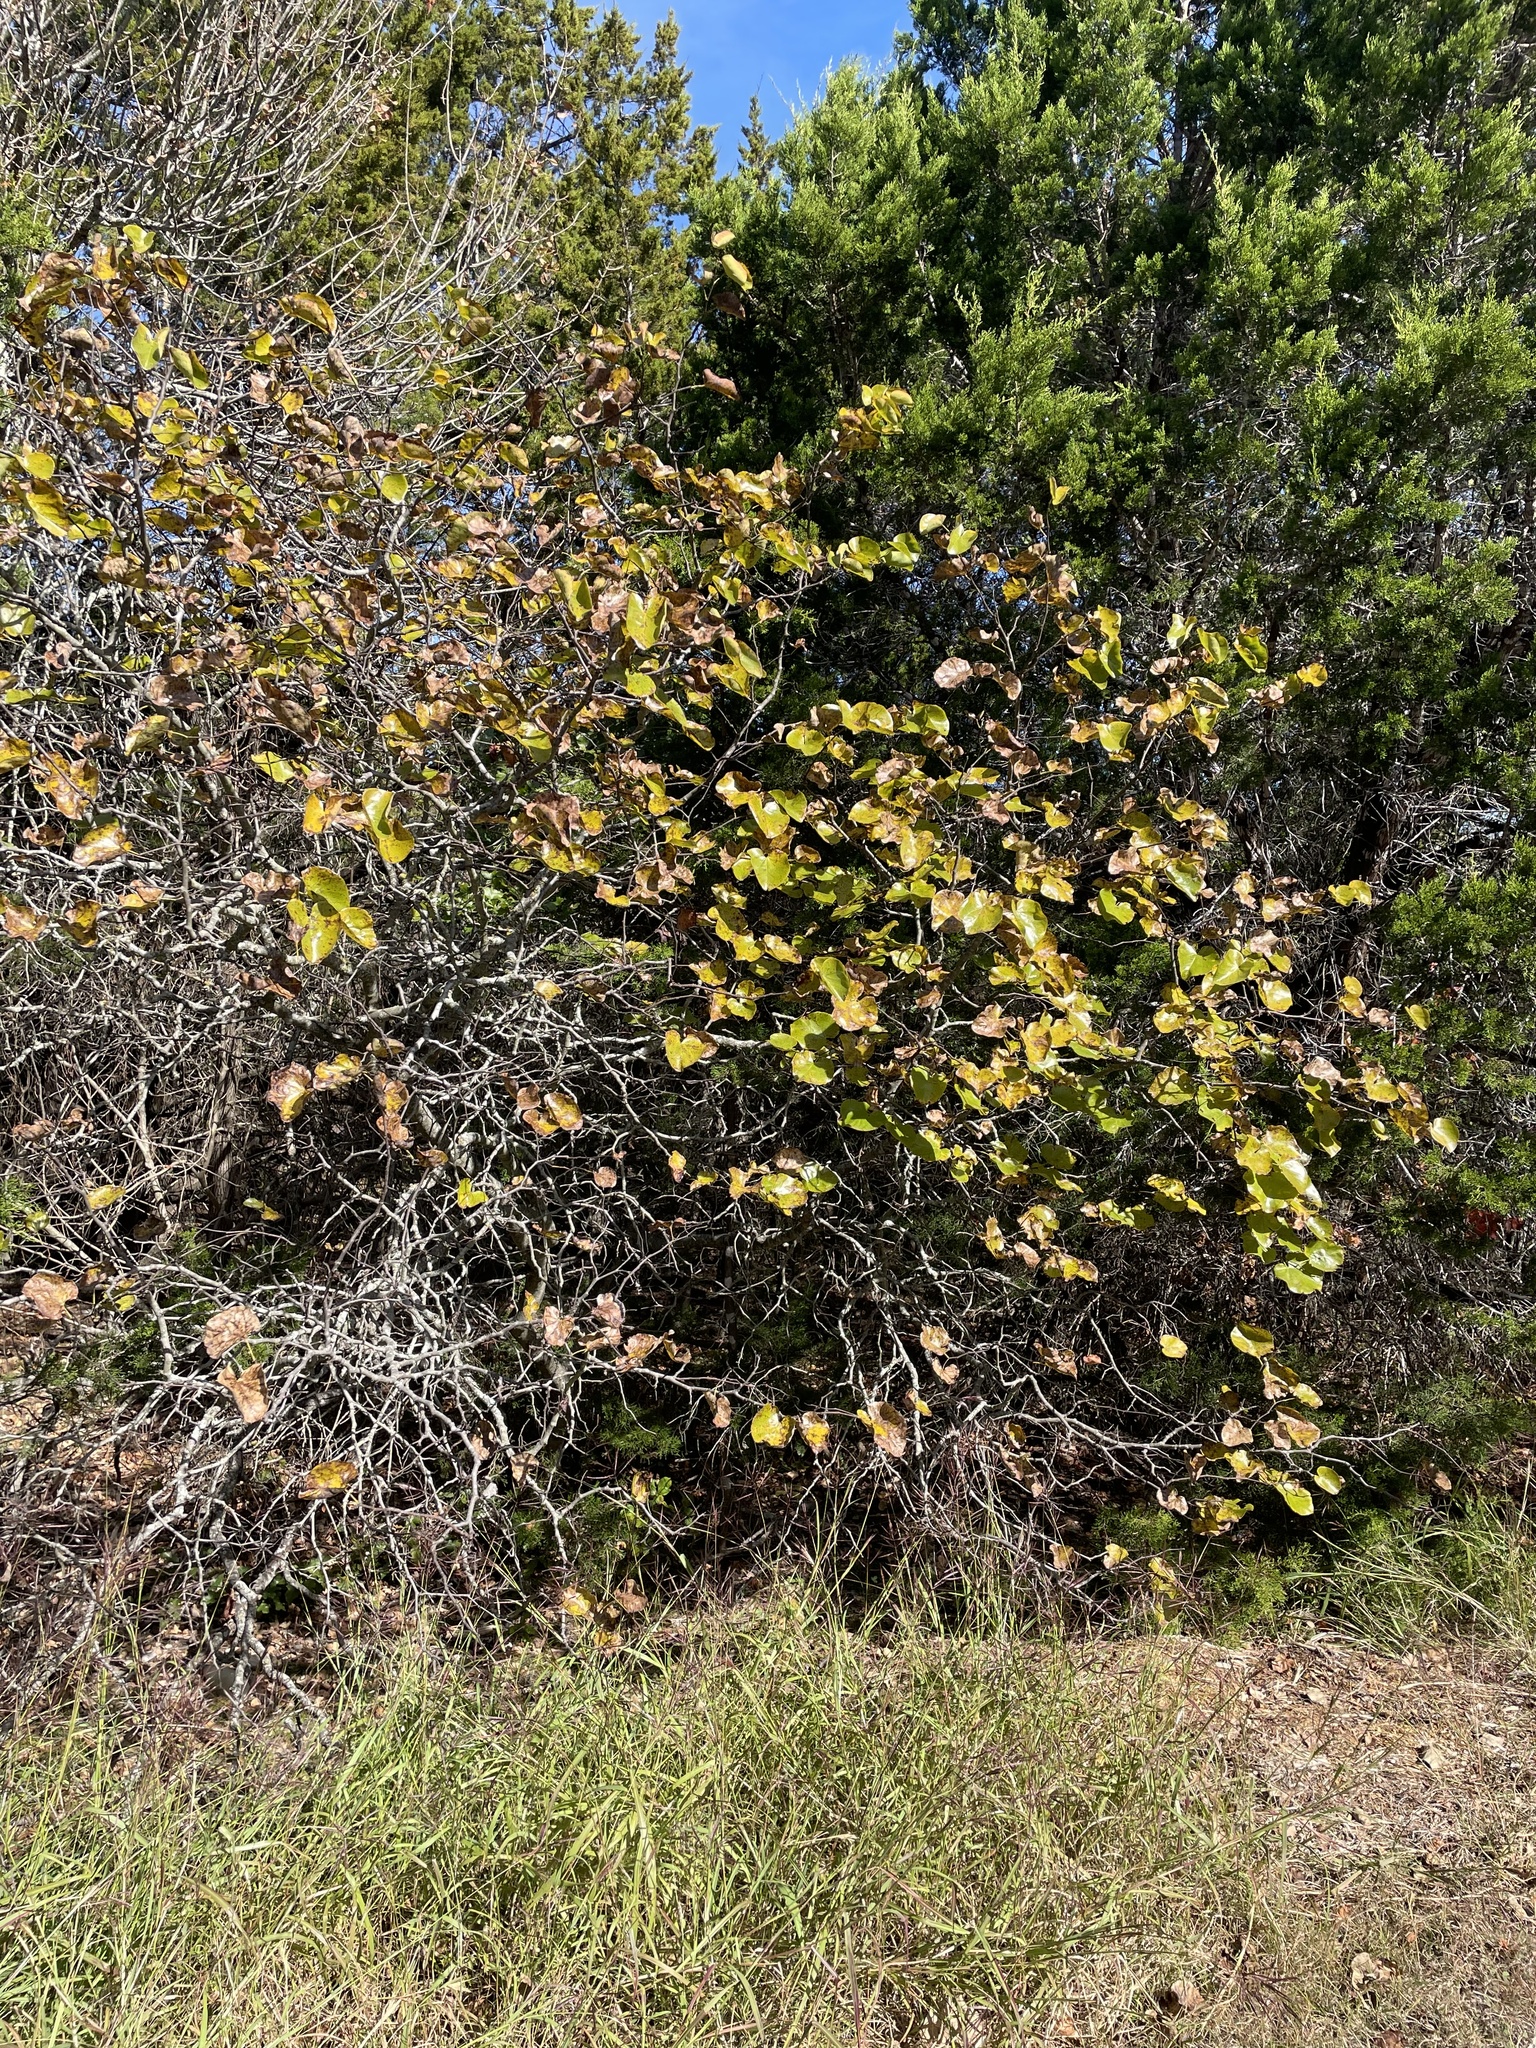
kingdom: Plantae
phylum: Tracheophyta
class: Magnoliopsida
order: Fabales
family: Fabaceae
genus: Cercis
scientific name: Cercis canadensis
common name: Eastern redbud
